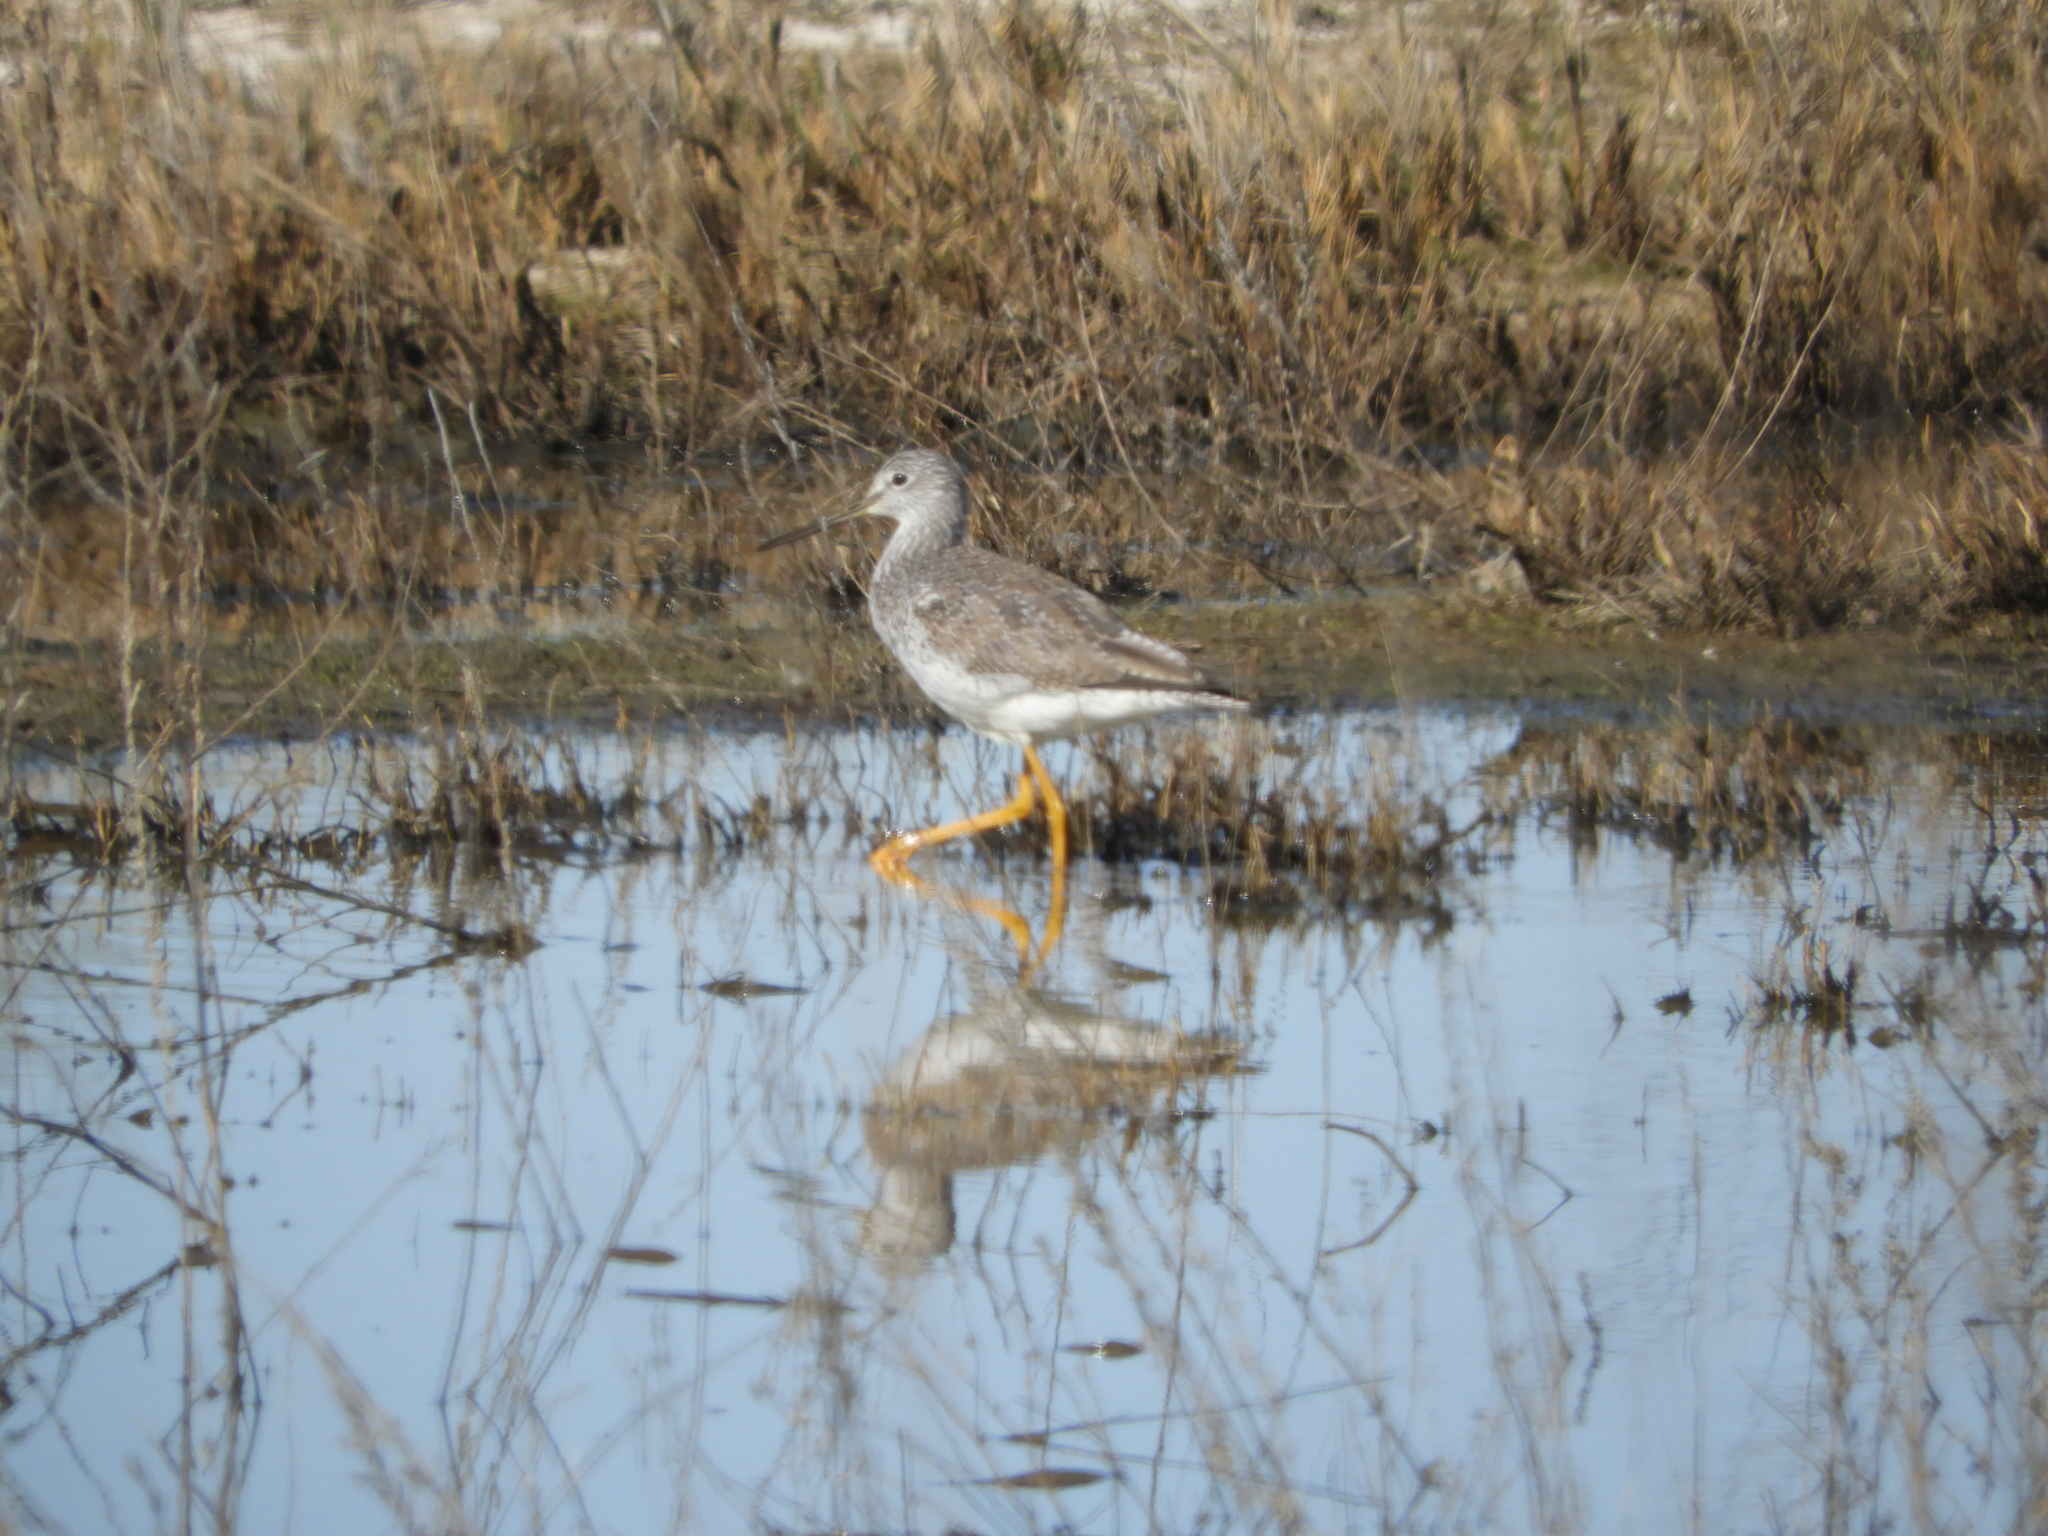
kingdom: Animalia
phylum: Chordata
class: Aves
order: Charadriiformes
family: Scolopacidae
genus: Tringa
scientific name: Tringa melanoleuca
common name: Greater yellowlegs
